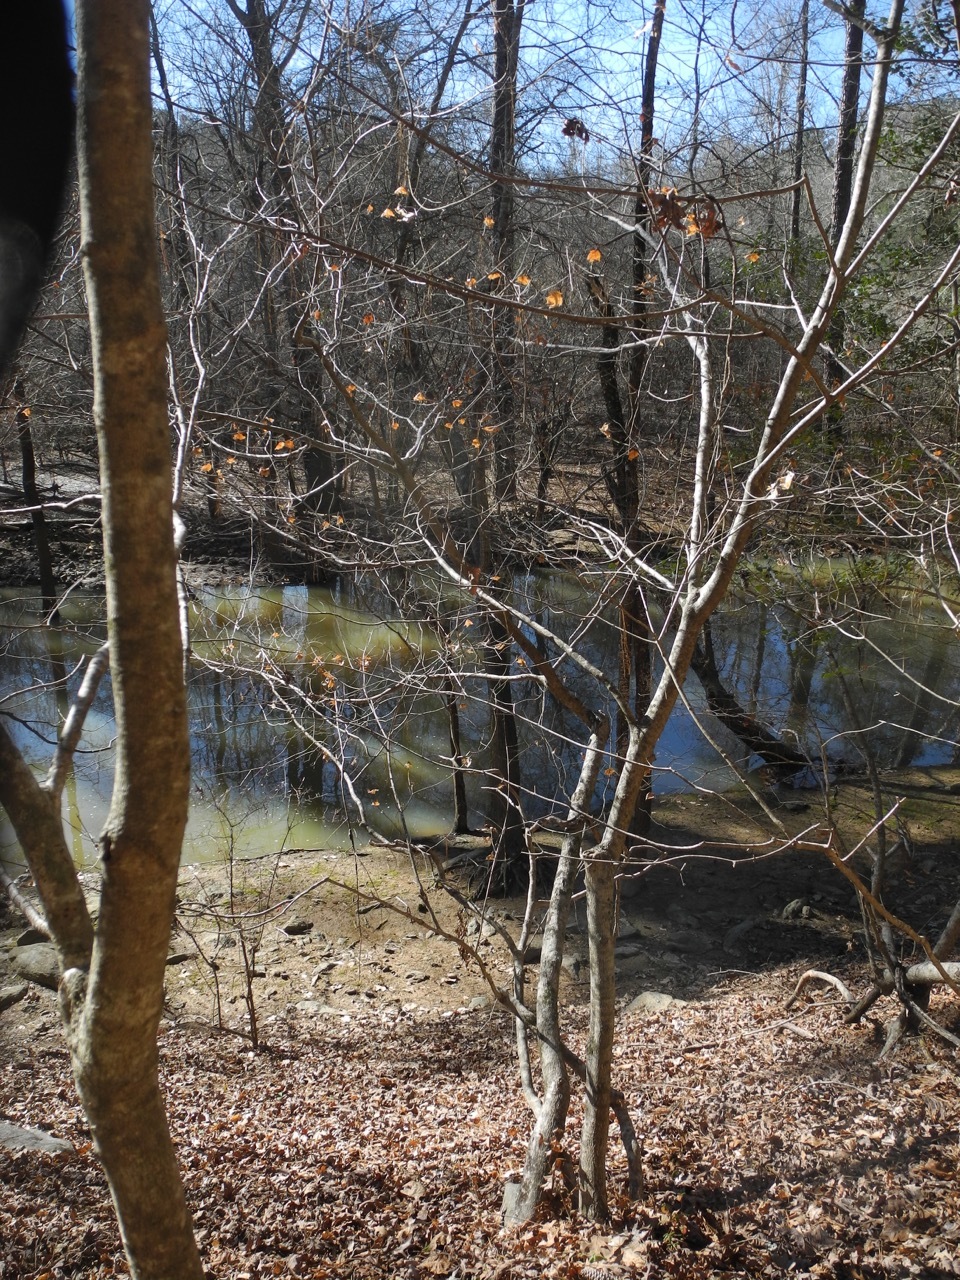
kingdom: Plantae
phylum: Tracheophyta
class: Magnoliopsida
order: Sapindales
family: Sapindaceae
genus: Acer
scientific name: Acer floridanum
